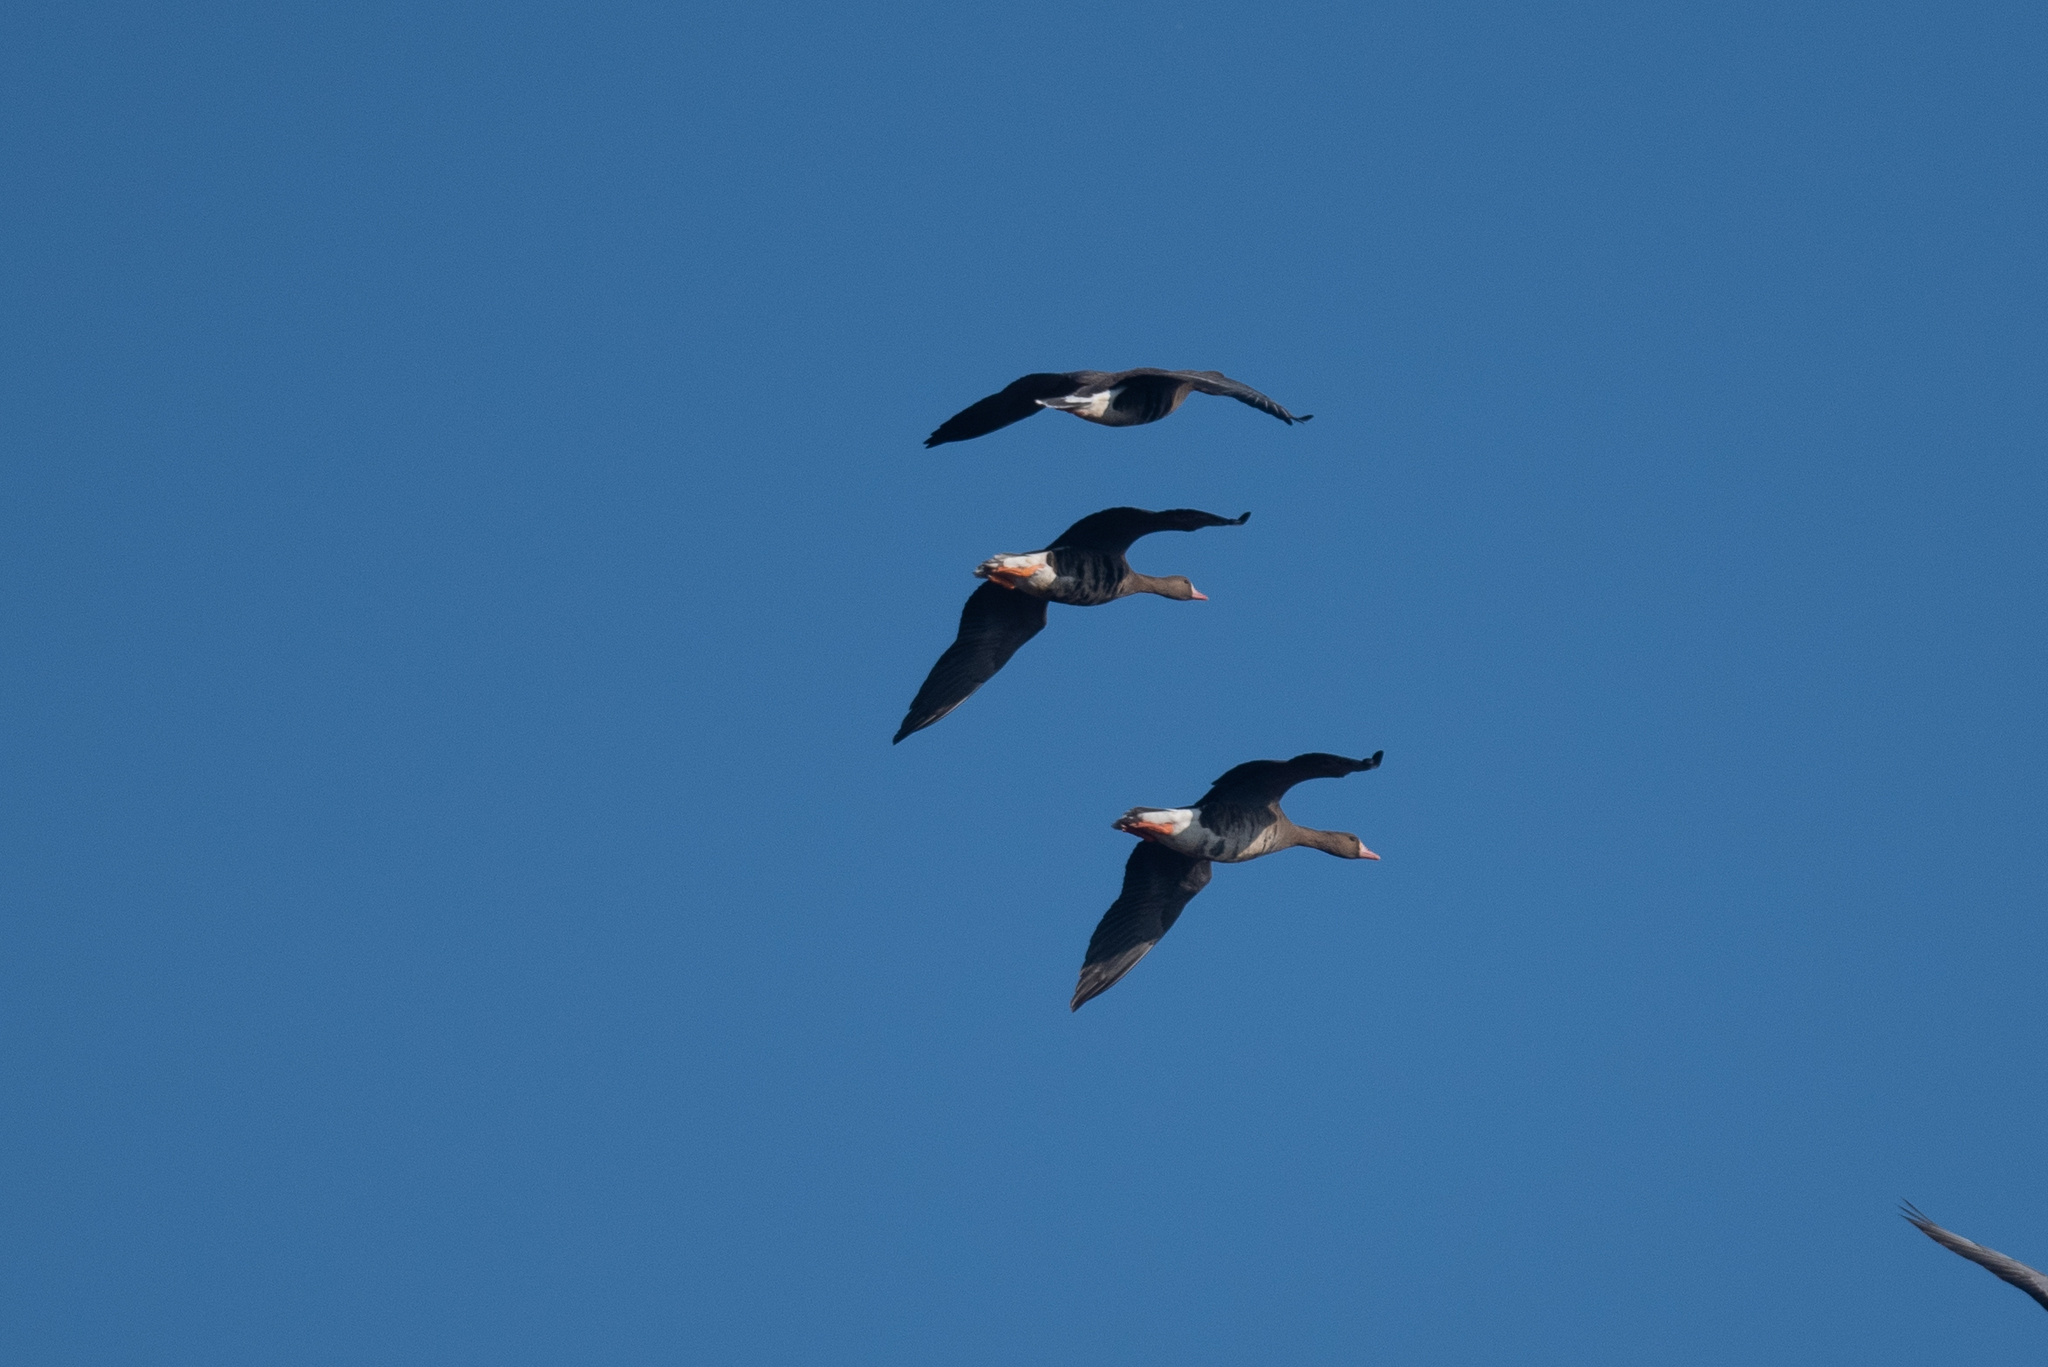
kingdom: Animalia
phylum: Chordata
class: Aves
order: Anseriformes
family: Anatidae
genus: Anser
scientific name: Anser albifrons
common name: Greater white-fronted goose
